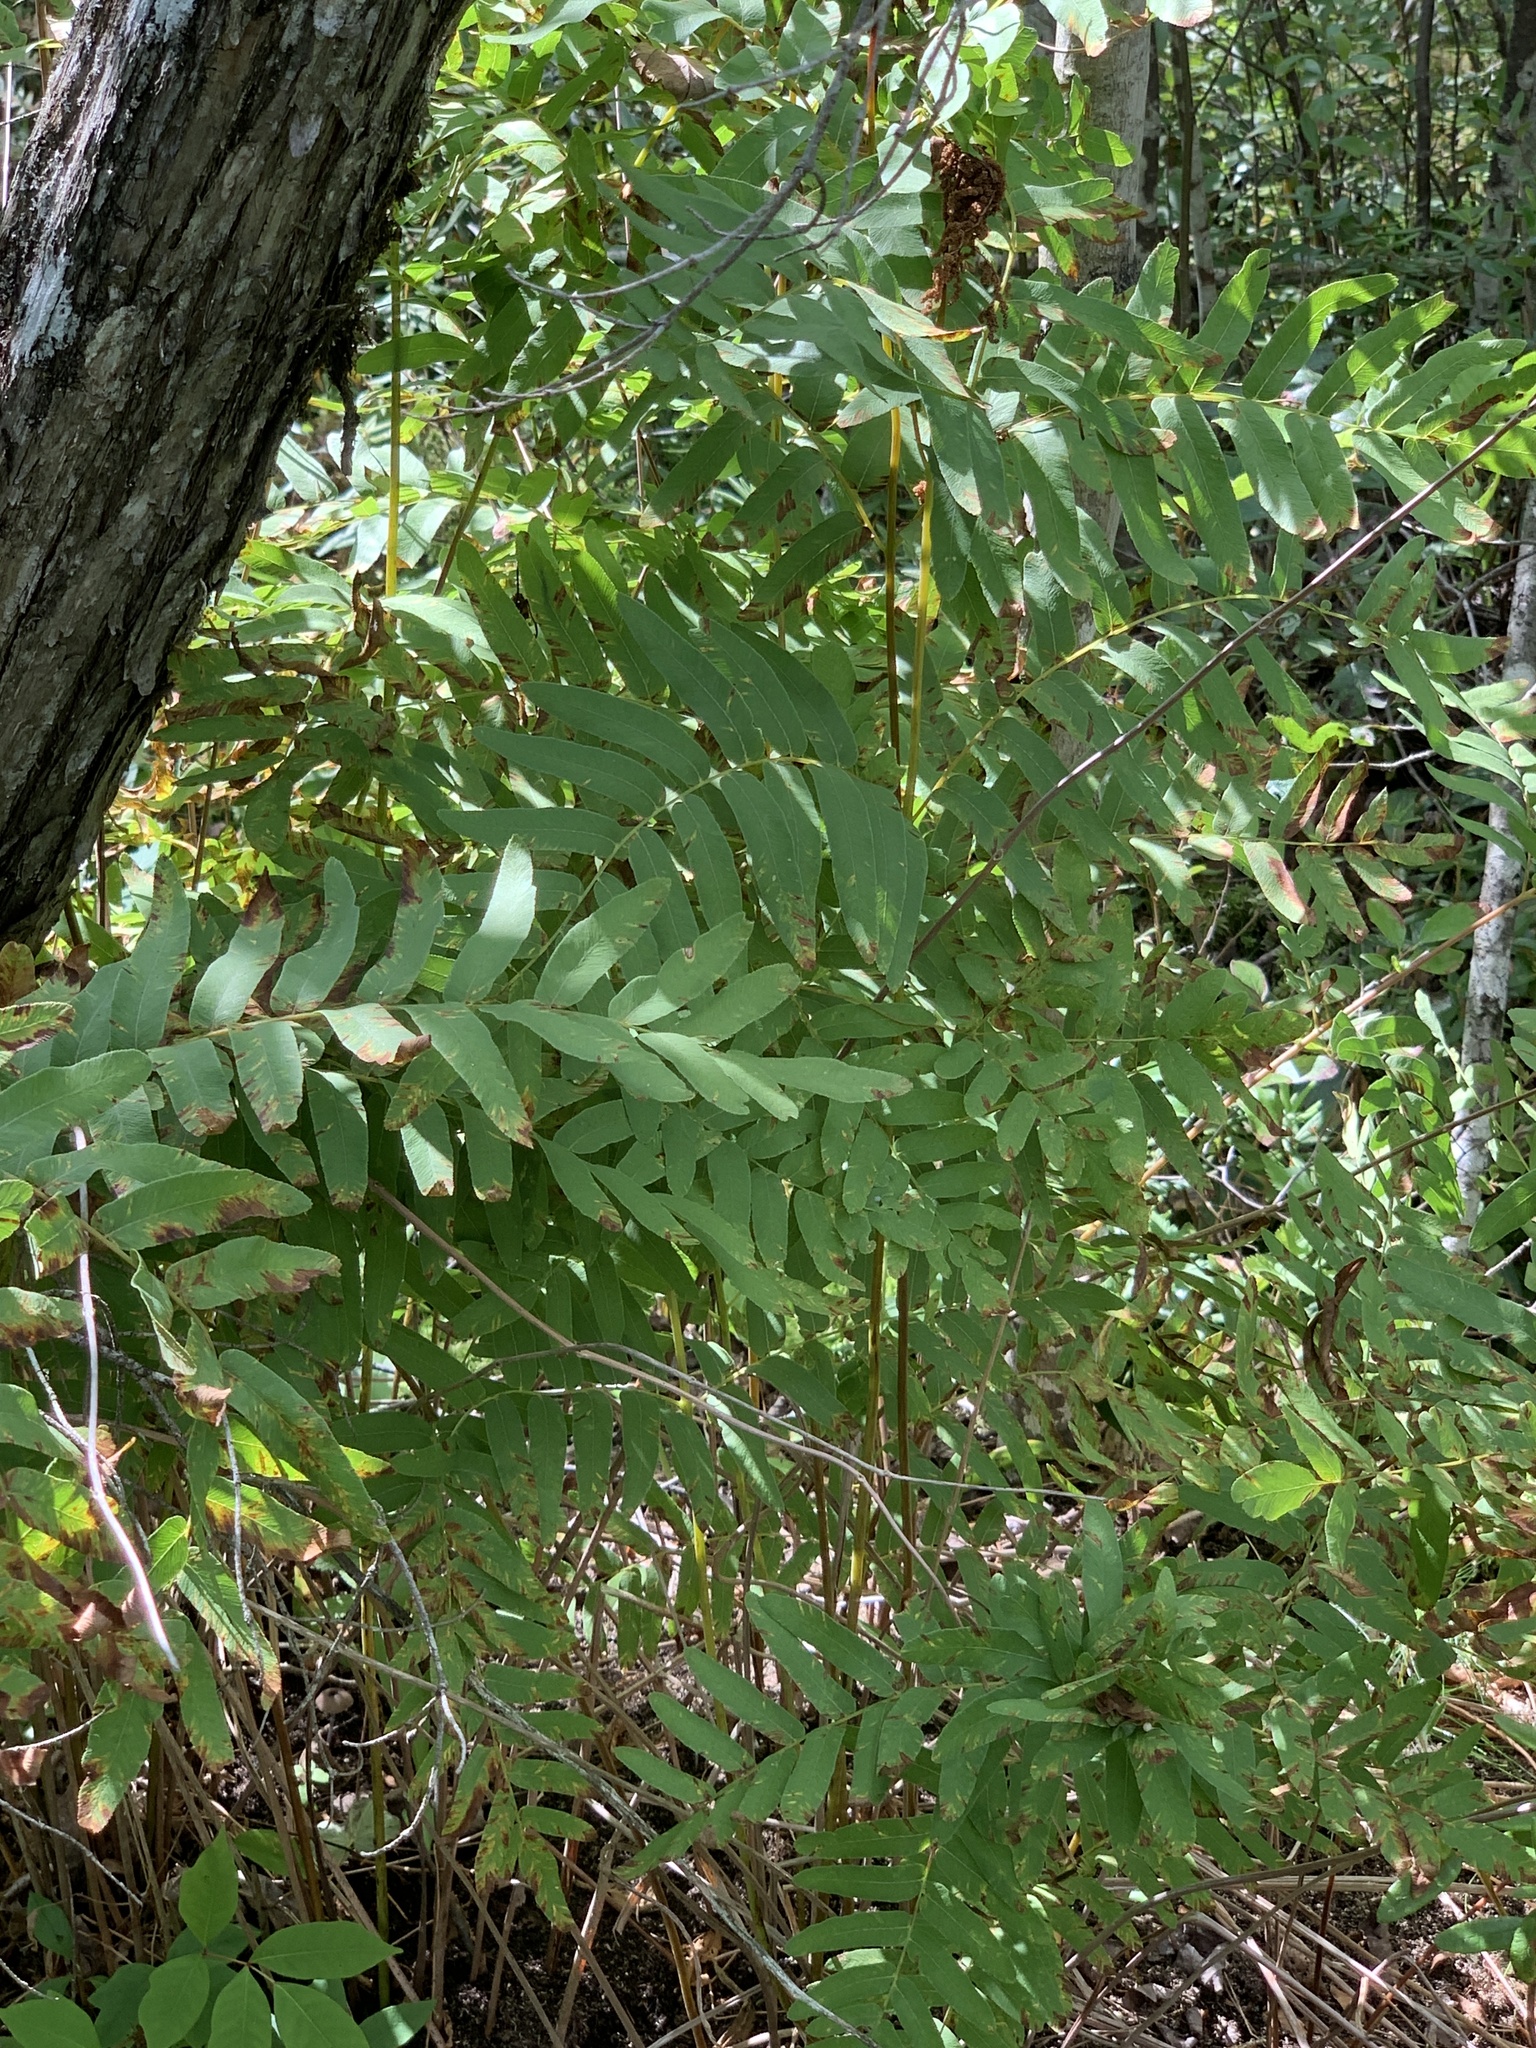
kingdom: Plantae
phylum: Tracheophyta
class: Polypodiopsida
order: Osmundales
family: Osmundaceae
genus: Osmunda
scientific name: Osmunda spectabilis
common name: American royal fern
